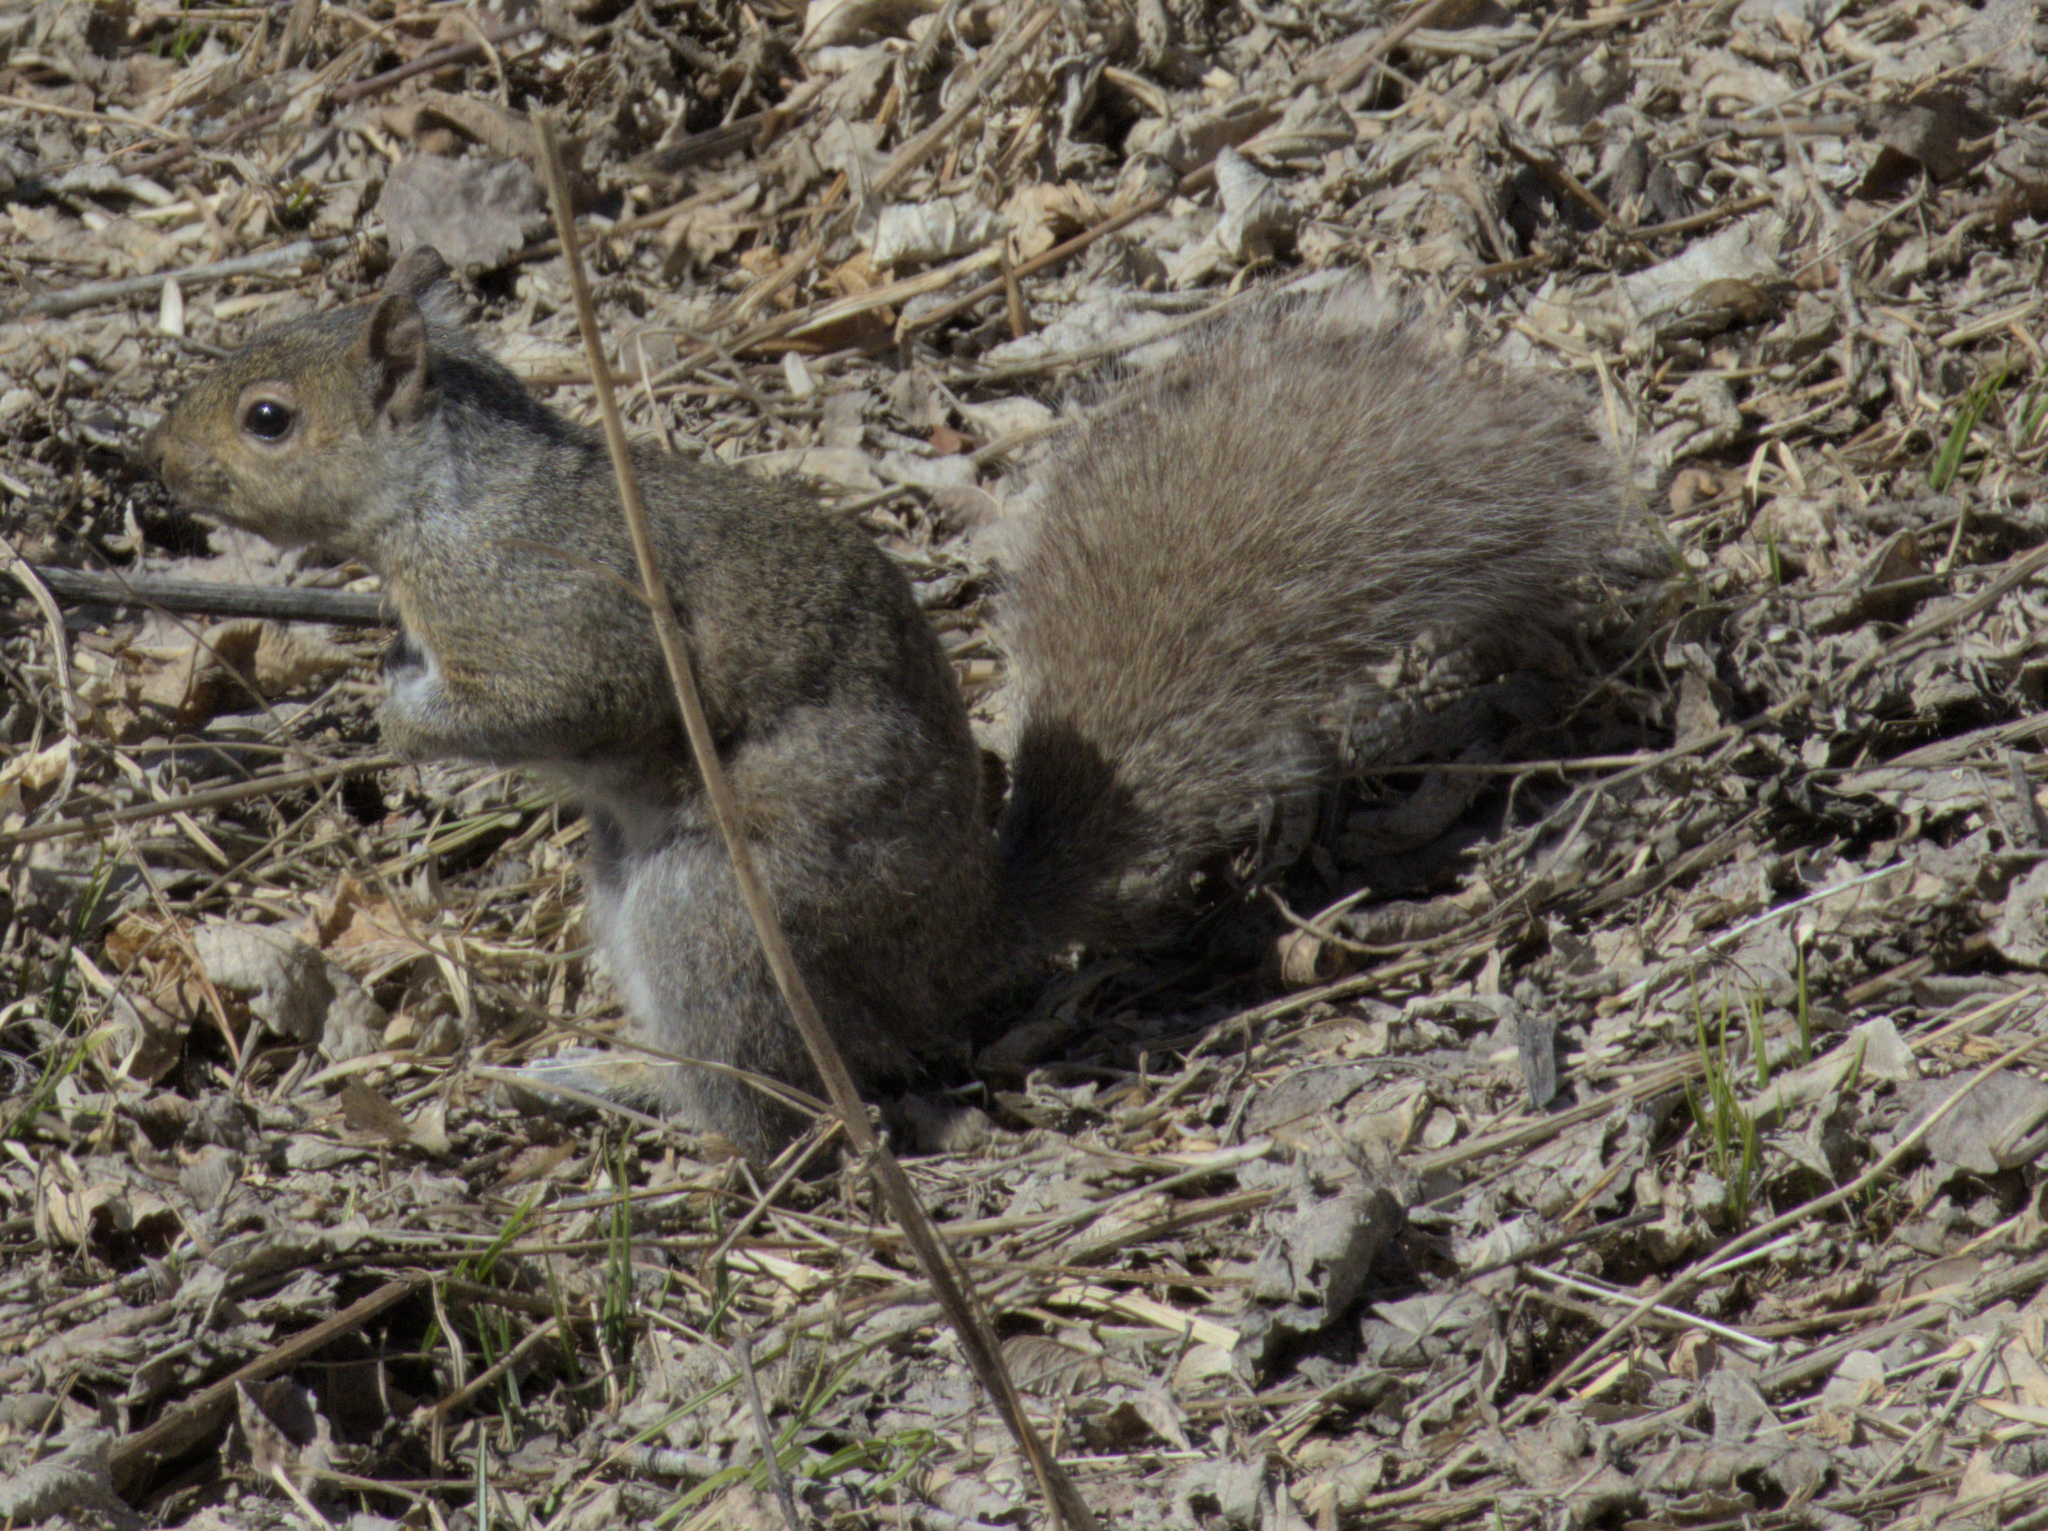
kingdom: Animalia
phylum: Chordata
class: Mammalia
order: Rodentia
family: Sciuridae
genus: Sciurus
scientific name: Sciurus carolinensis
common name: Eastern gray squirrel
